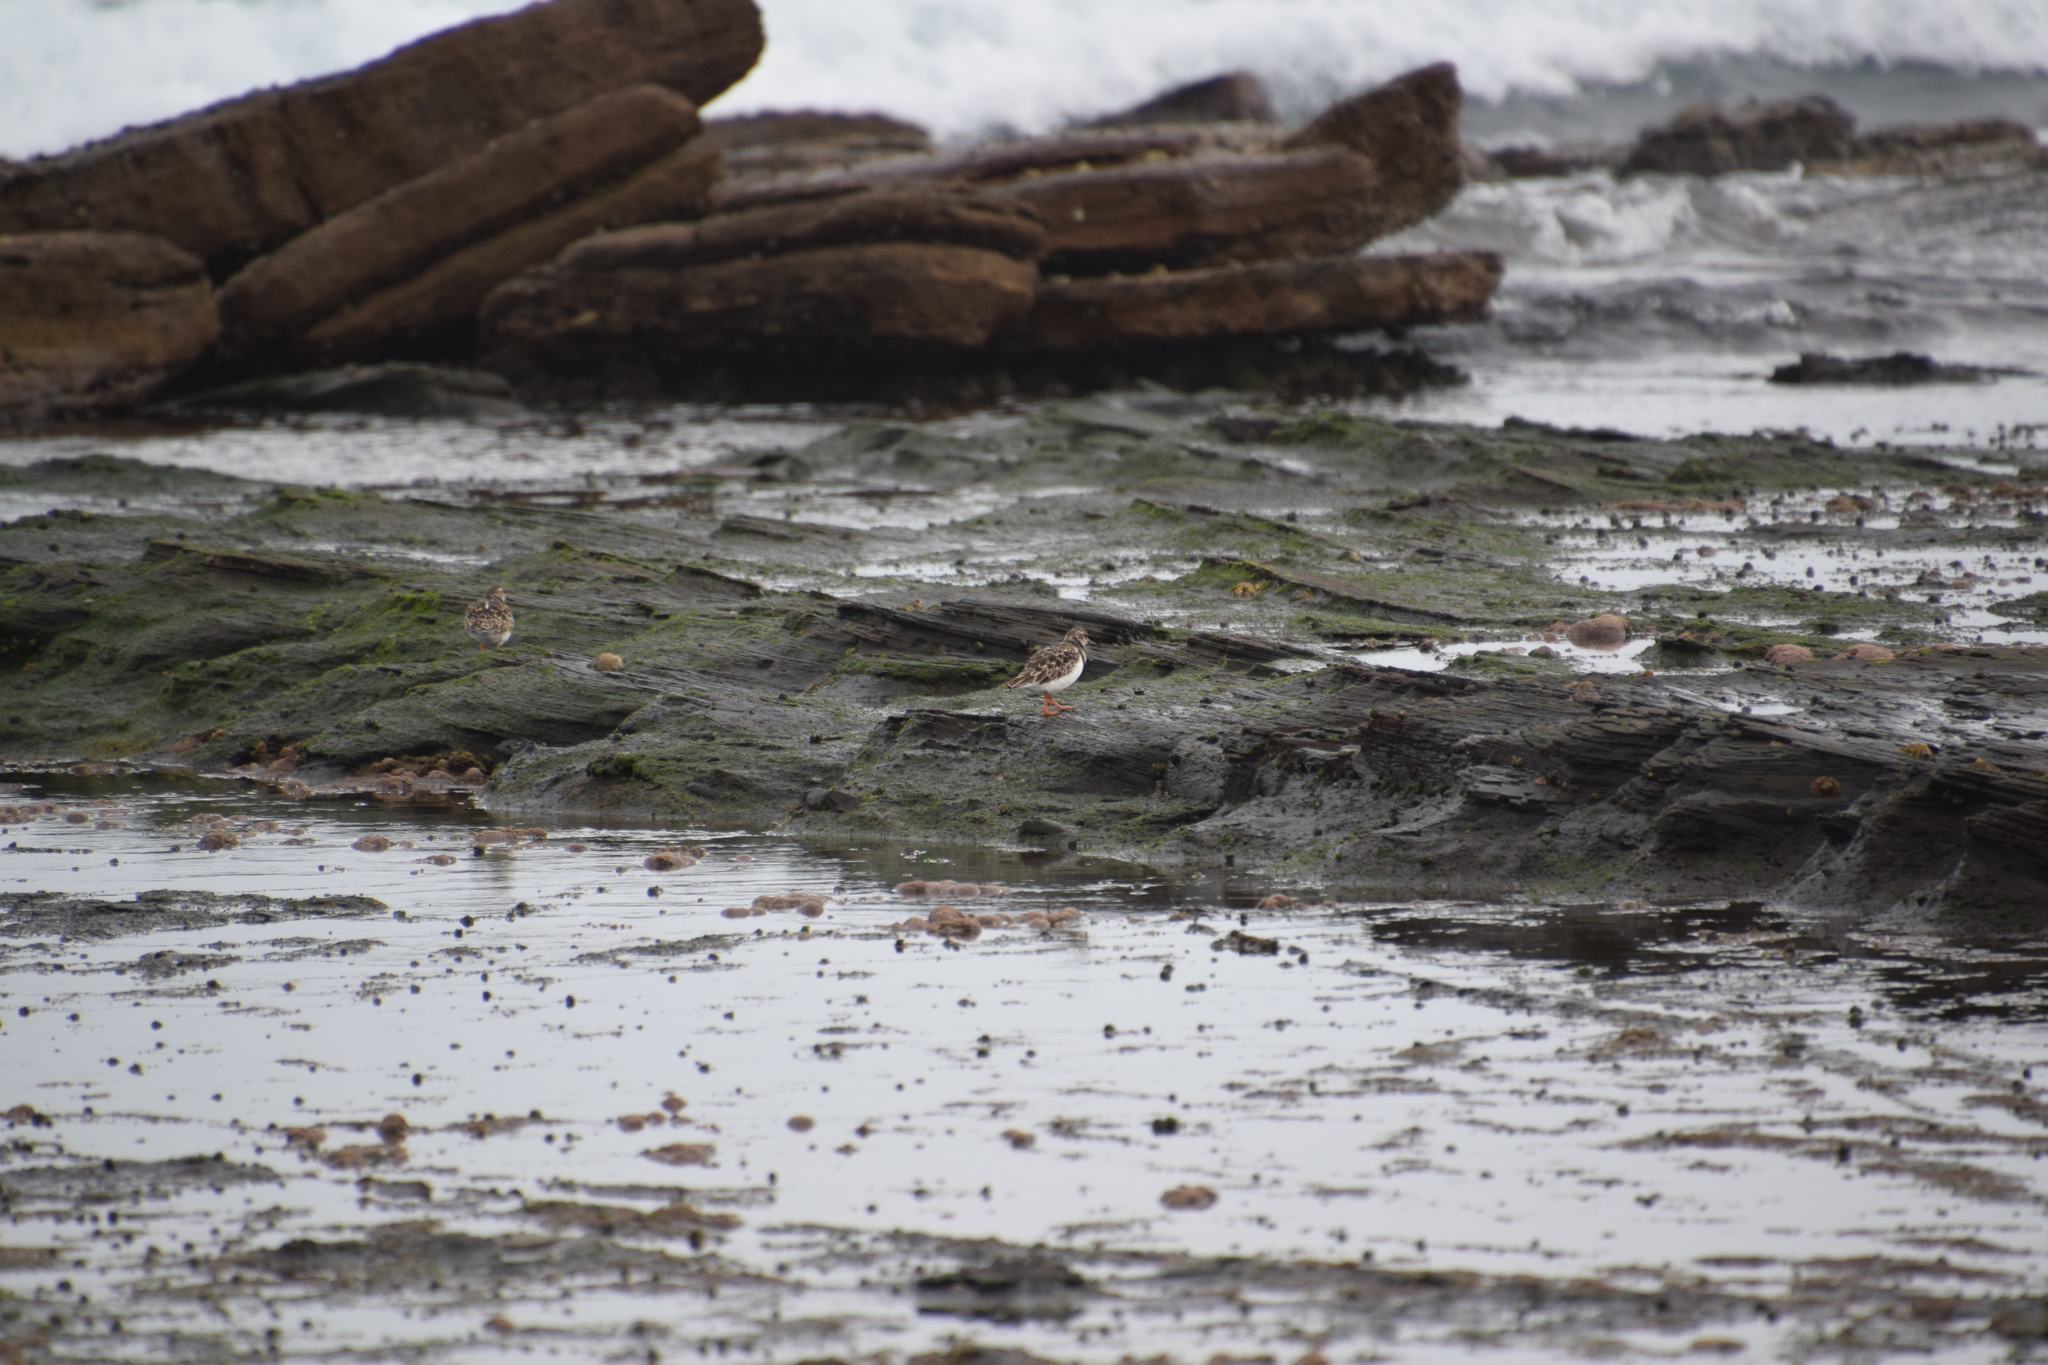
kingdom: Animalia
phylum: Chordata
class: Aves
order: Charadriiformes
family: Scolopacidae
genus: Arenaria
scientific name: Arenaria interpres
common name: Ruddy turnstone
